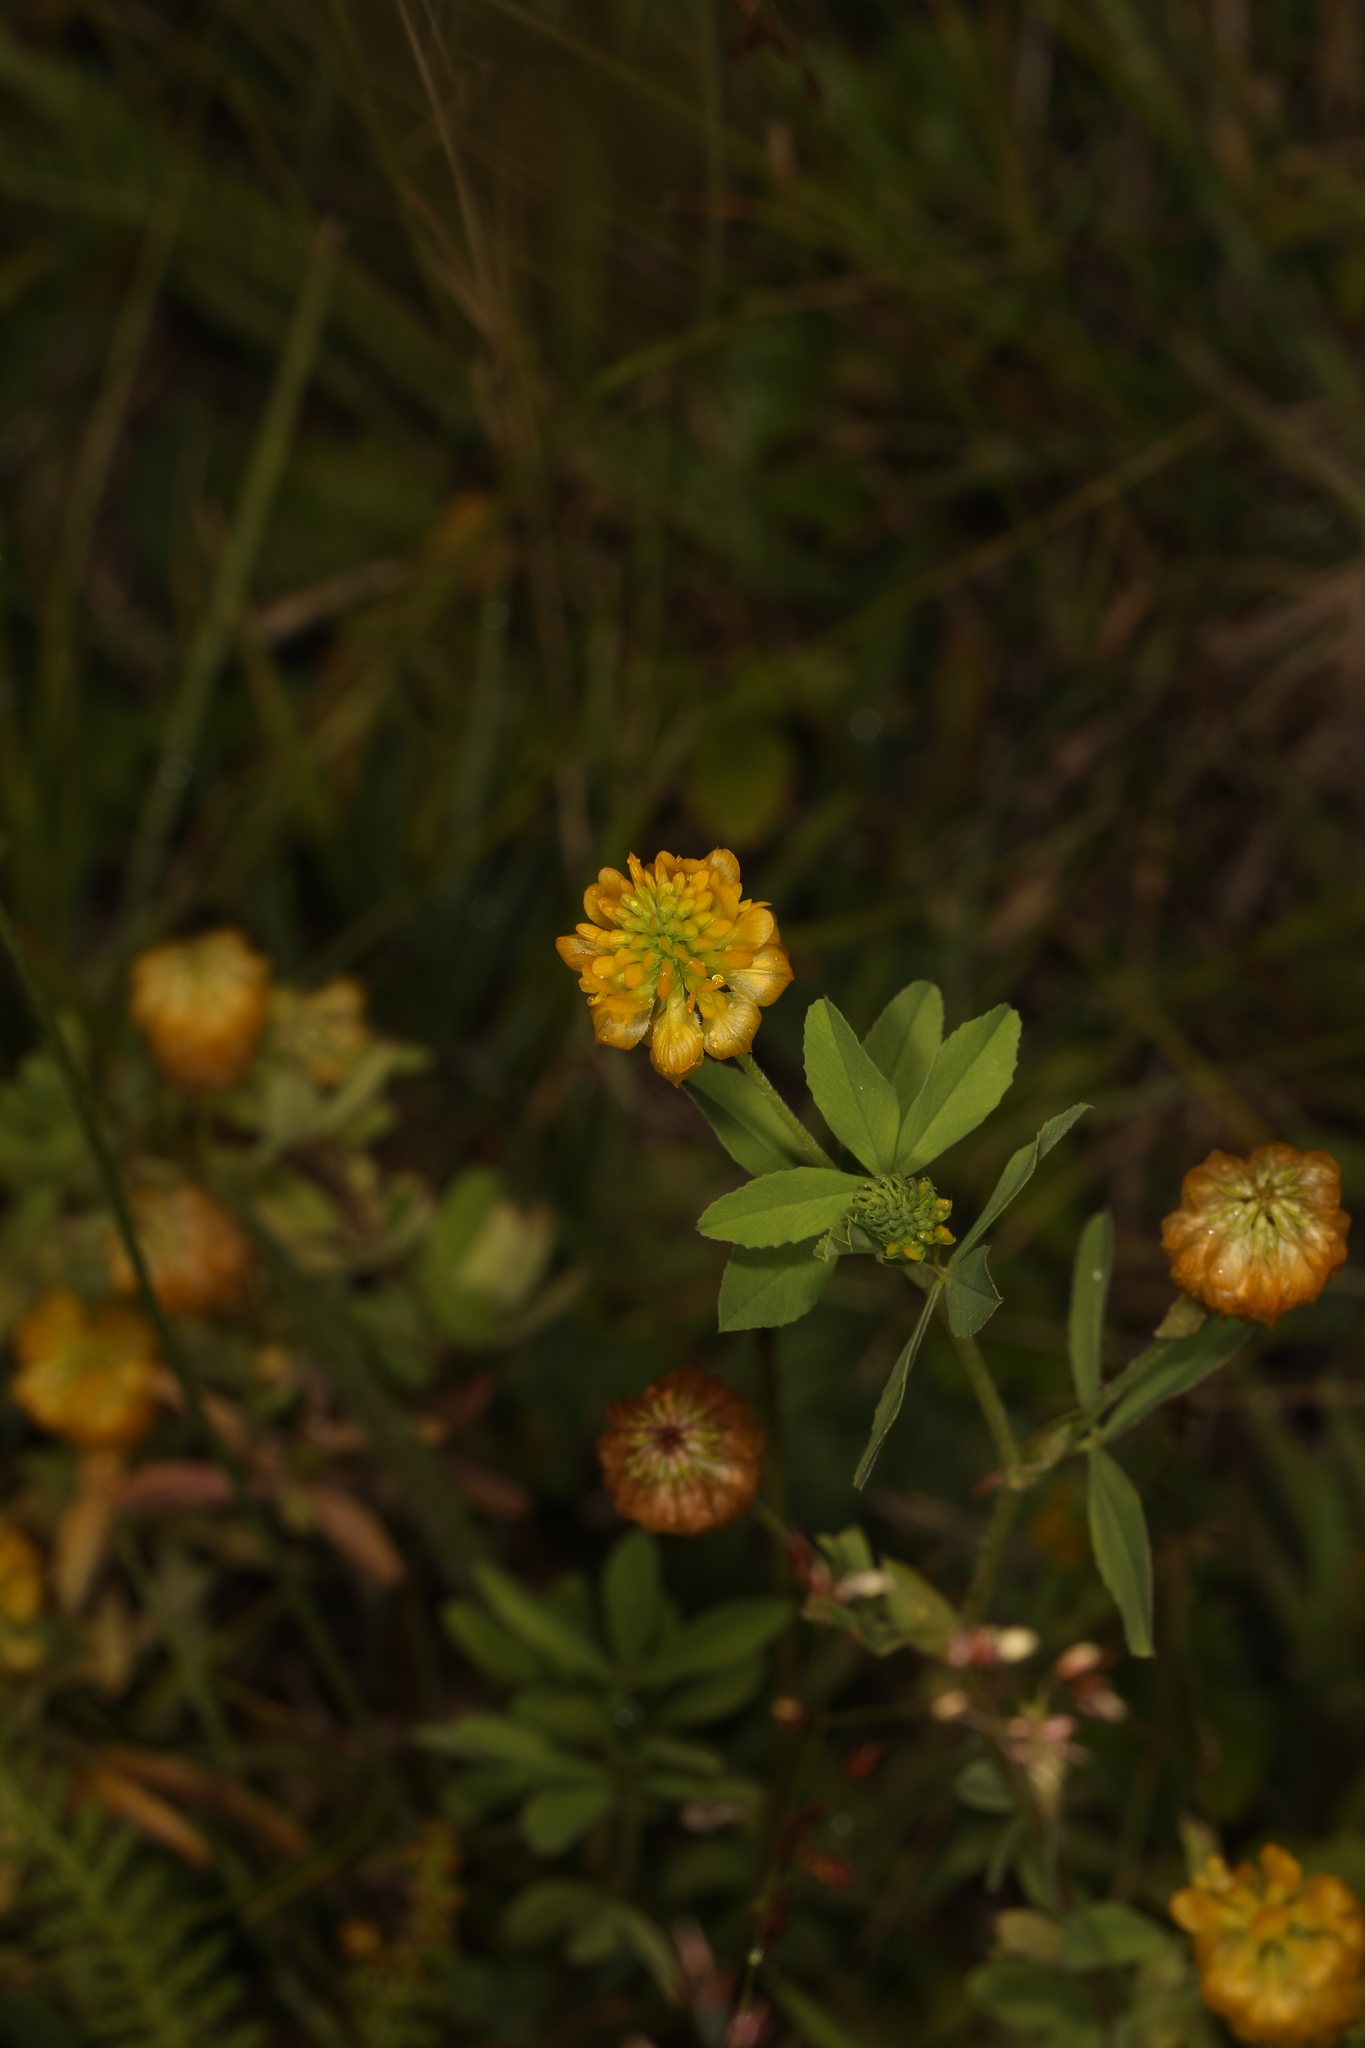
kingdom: Plantae
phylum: Tracheophyta
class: Magnoliopsida
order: Fabales
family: Fabaceae
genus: Trifolium
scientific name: Trifolium aureum
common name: Golden clover
